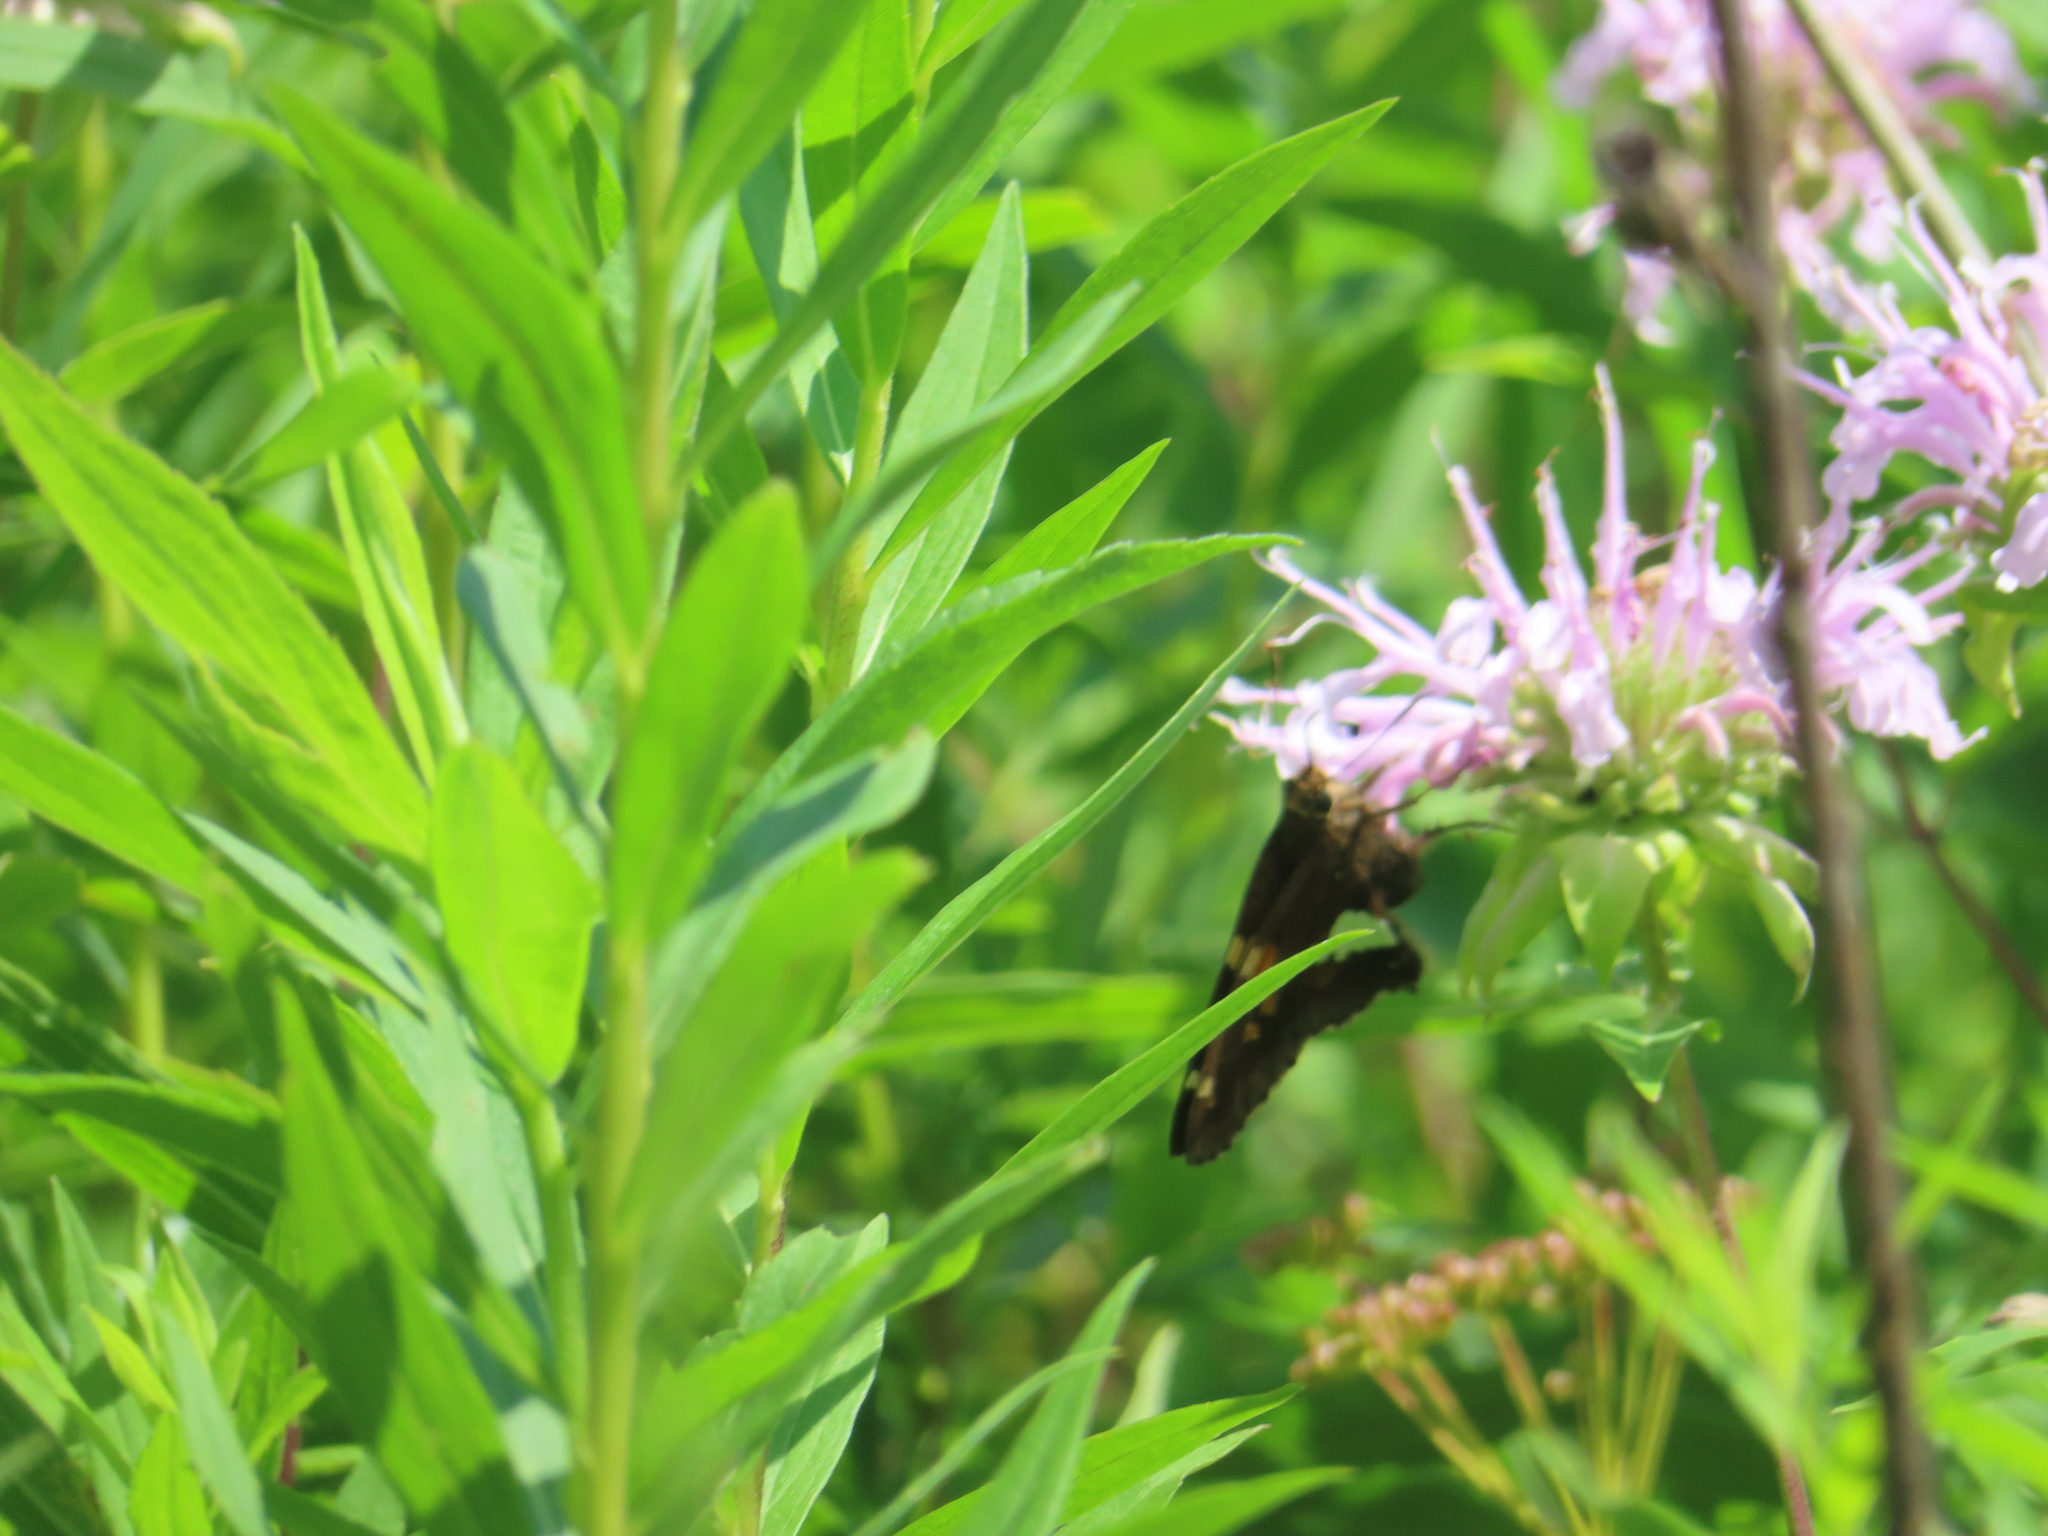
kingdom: Animalia
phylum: Arthropoda
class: Insecta
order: Lepidoptera
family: Hesperiidae
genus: Epargyreus
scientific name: Epargyreus clarus
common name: Silver-spotted skipper
